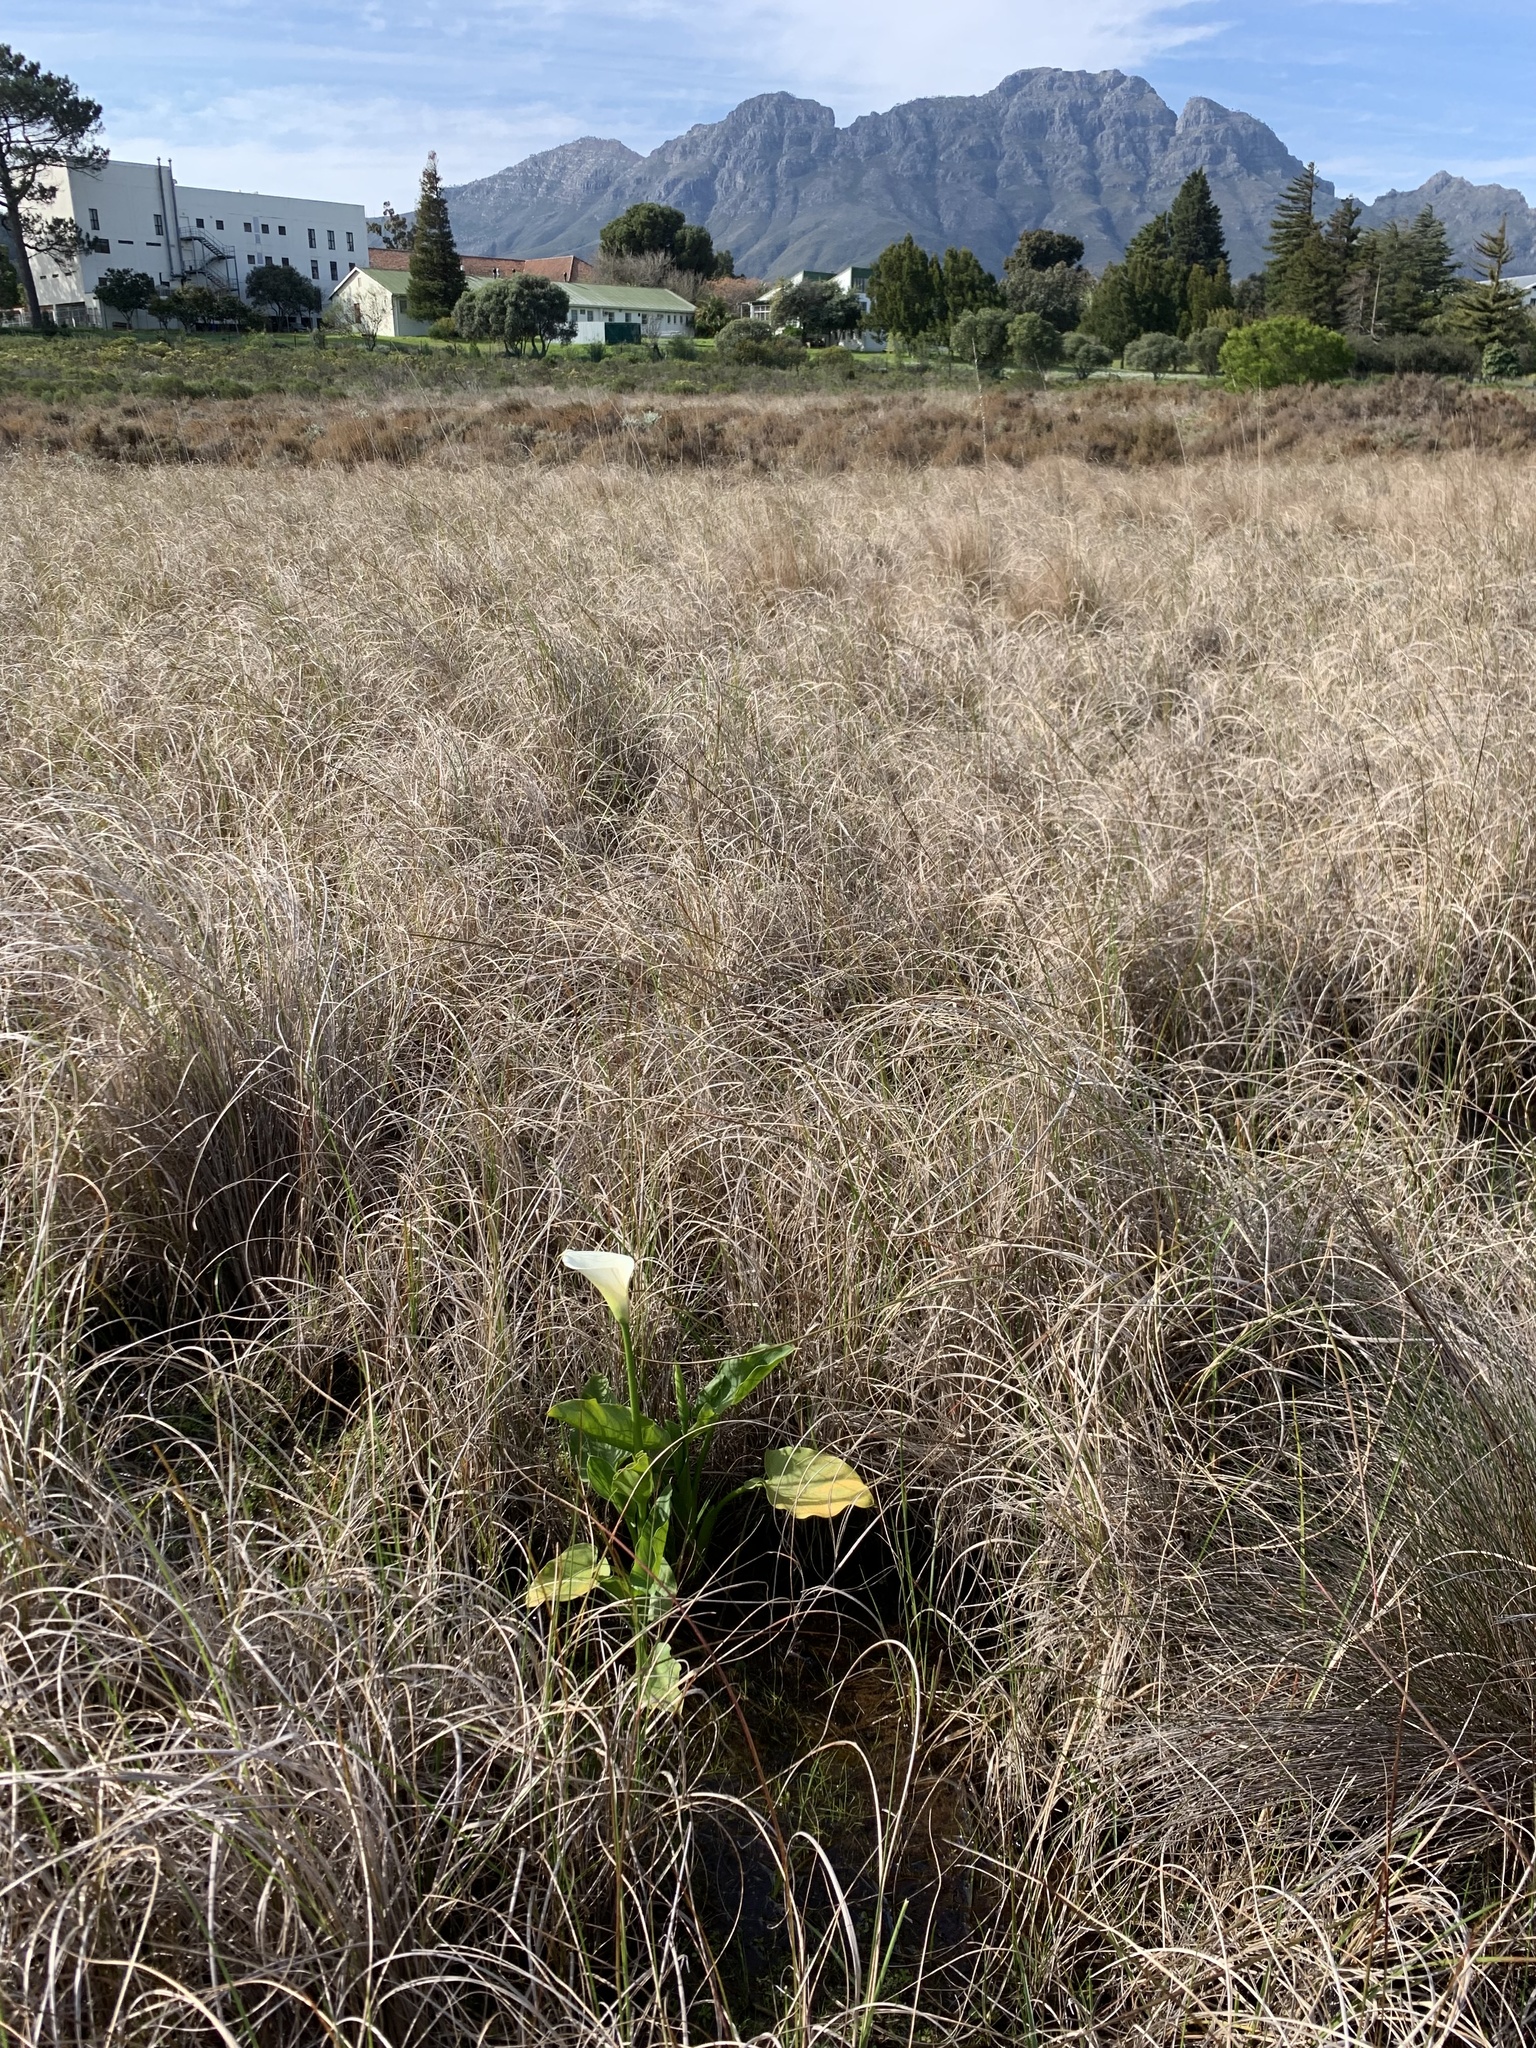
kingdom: Plantae
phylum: Tracheophyta
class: Liliopsida
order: Alismatales
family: Araceae
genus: Zantedeschia
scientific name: Zantedeschia aethiopica
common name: Altar-lily
